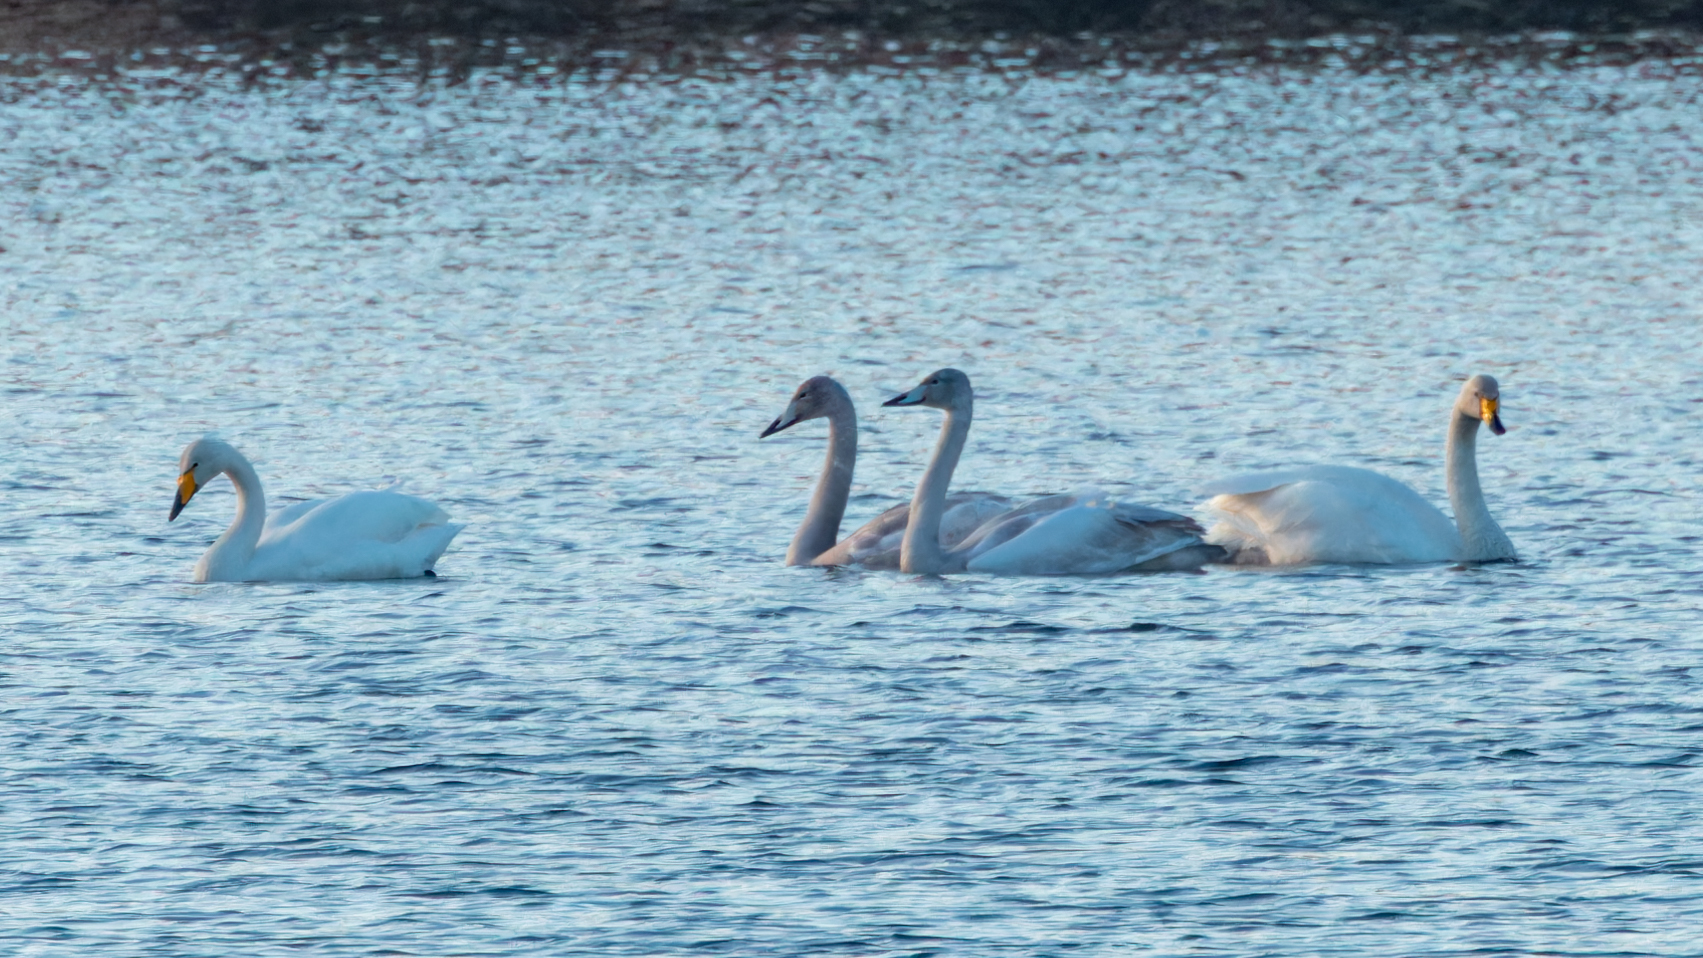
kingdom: Animalia
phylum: Chordata
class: Aves
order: Anseriformes
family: Anatidae
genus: Cygnus
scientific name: Cygnus cygnus
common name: Whooper swan
